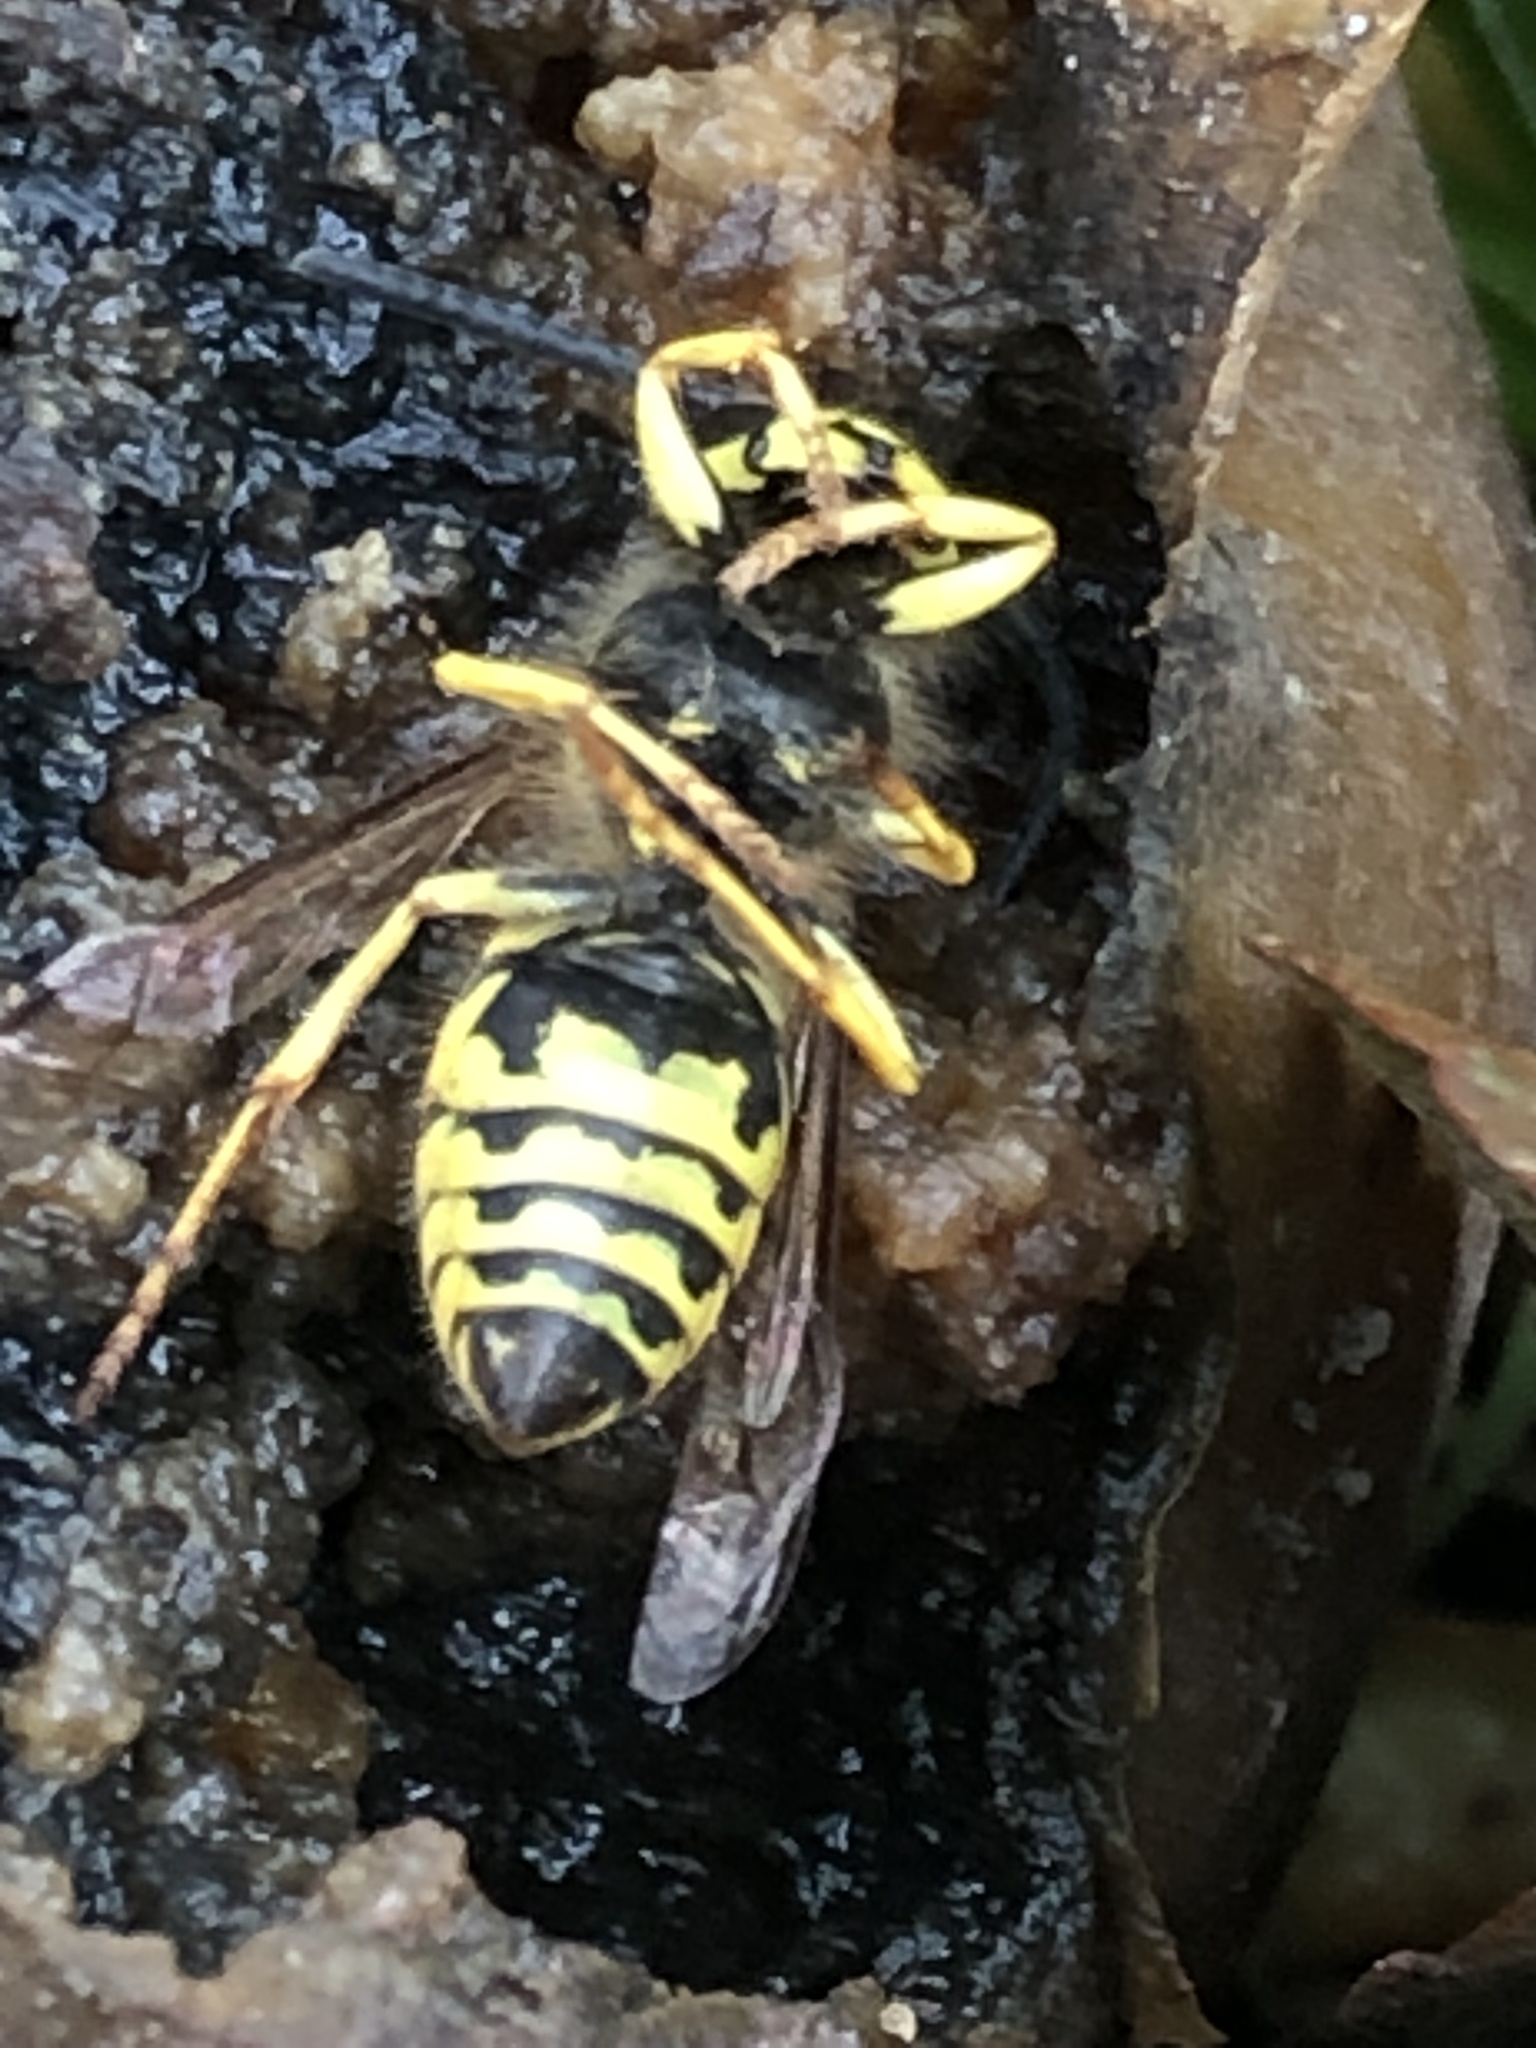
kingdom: Animalia
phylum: Arthropoda
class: Insecta
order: Hymenoptera
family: Vespidae
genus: Vespula
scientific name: Vespula
